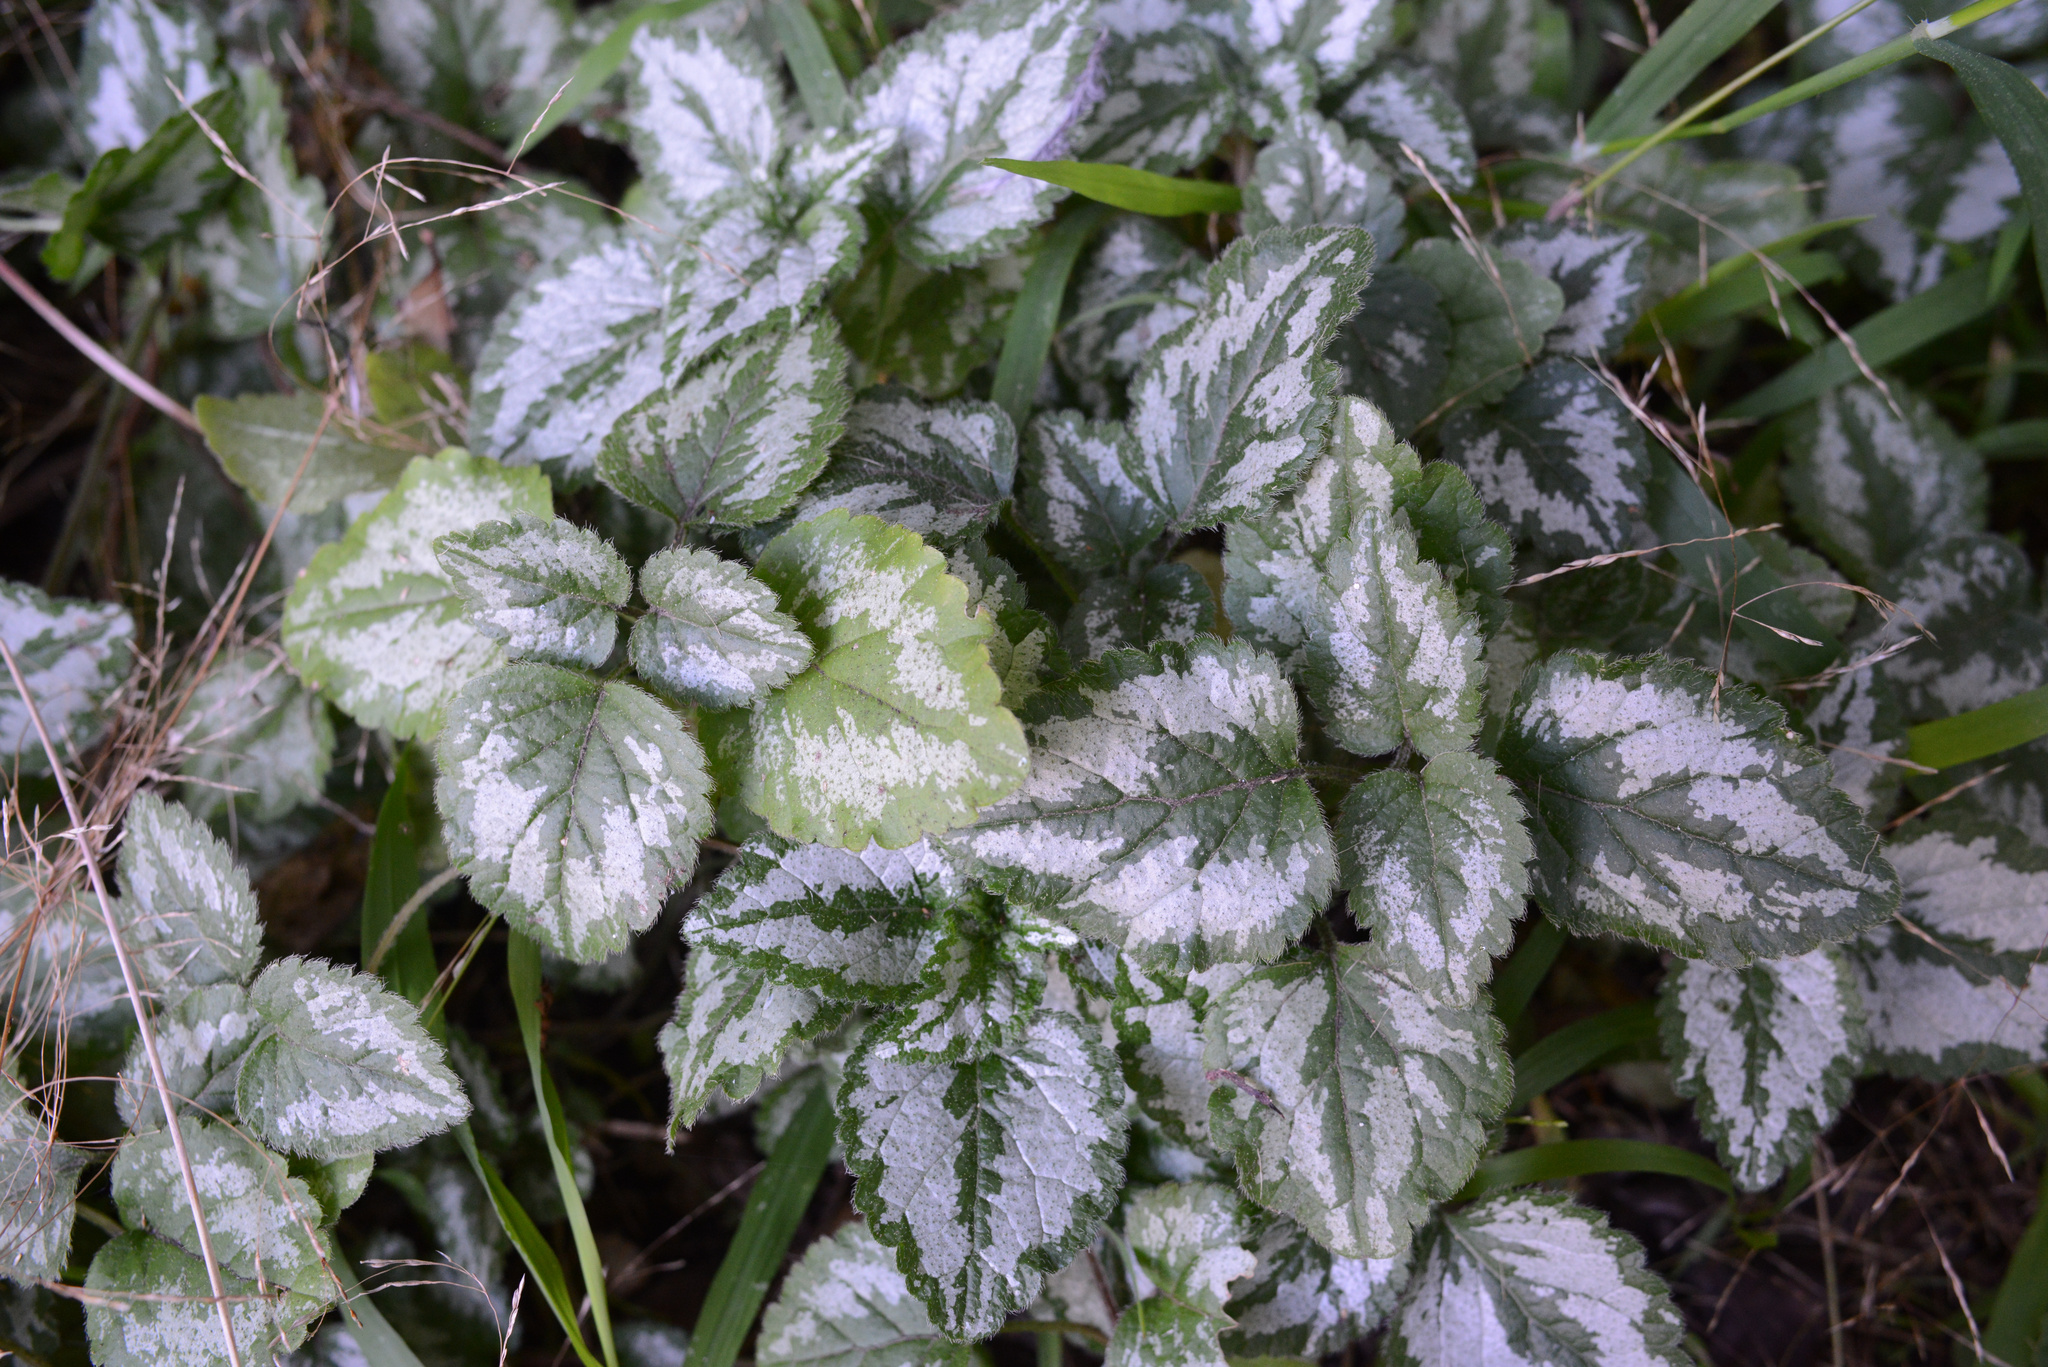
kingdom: Plantae
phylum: Tracheophyta
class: Magnoliopsida
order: Lamiales
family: Lamiaceae
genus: Lamium
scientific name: Lamium galeobdolon
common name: Yellow archangel
